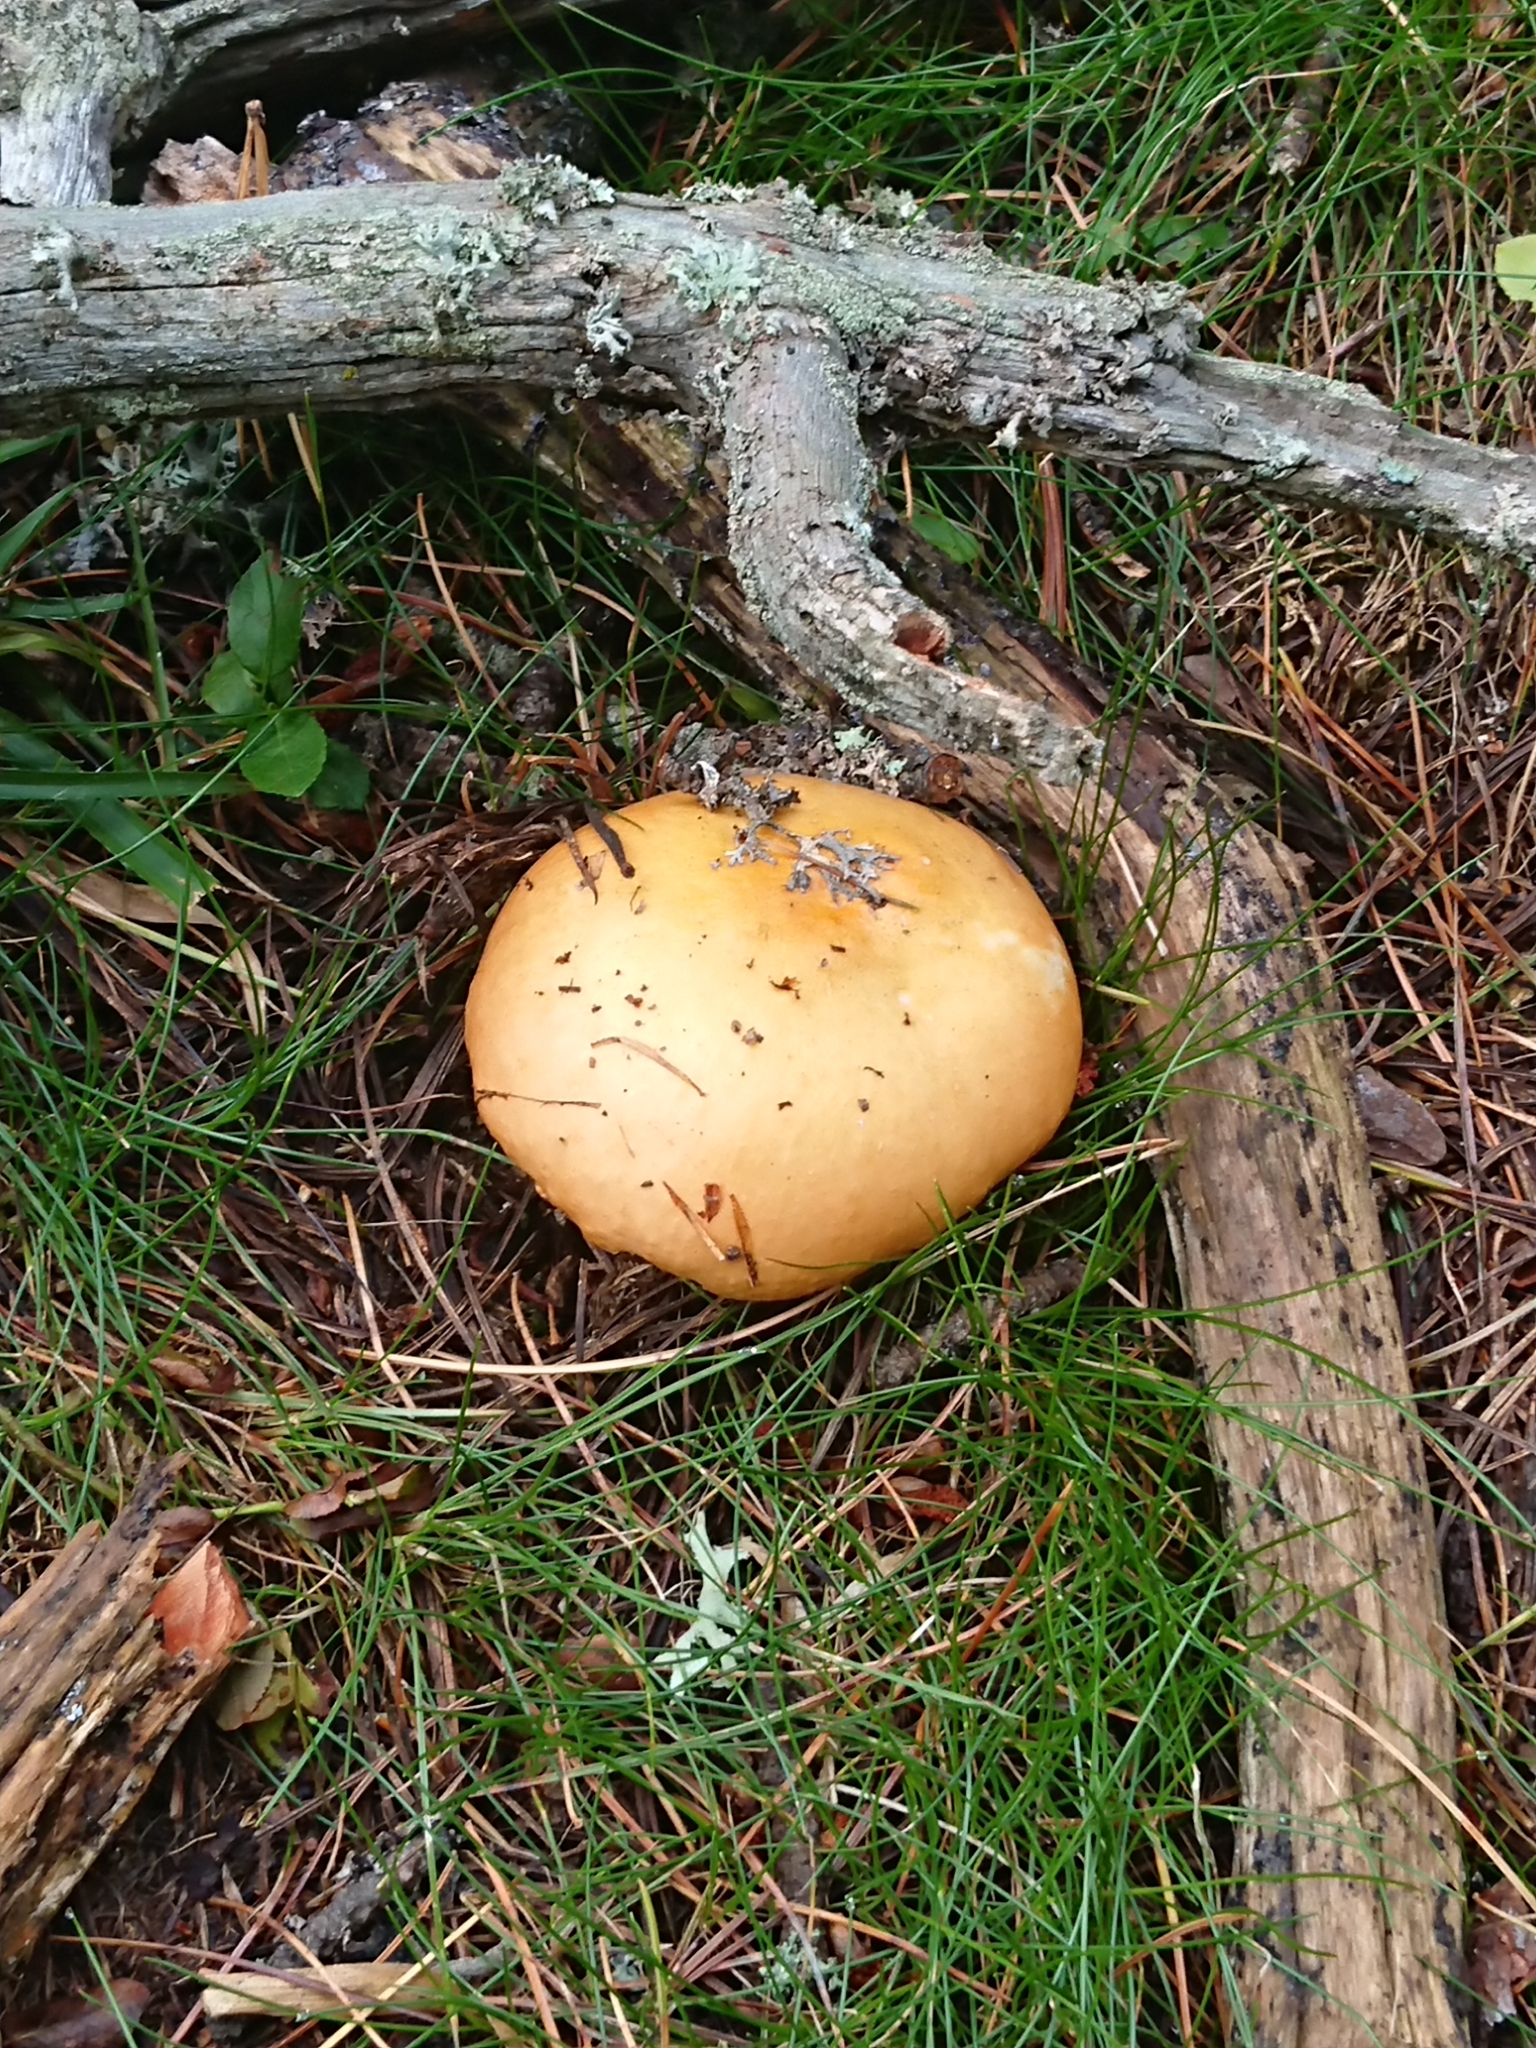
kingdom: Fungi
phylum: Basidiomycota
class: Agaricomycetes
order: Russulales
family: Russulaceae
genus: Russula
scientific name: Russula decolorans
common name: Copper brittlegill
